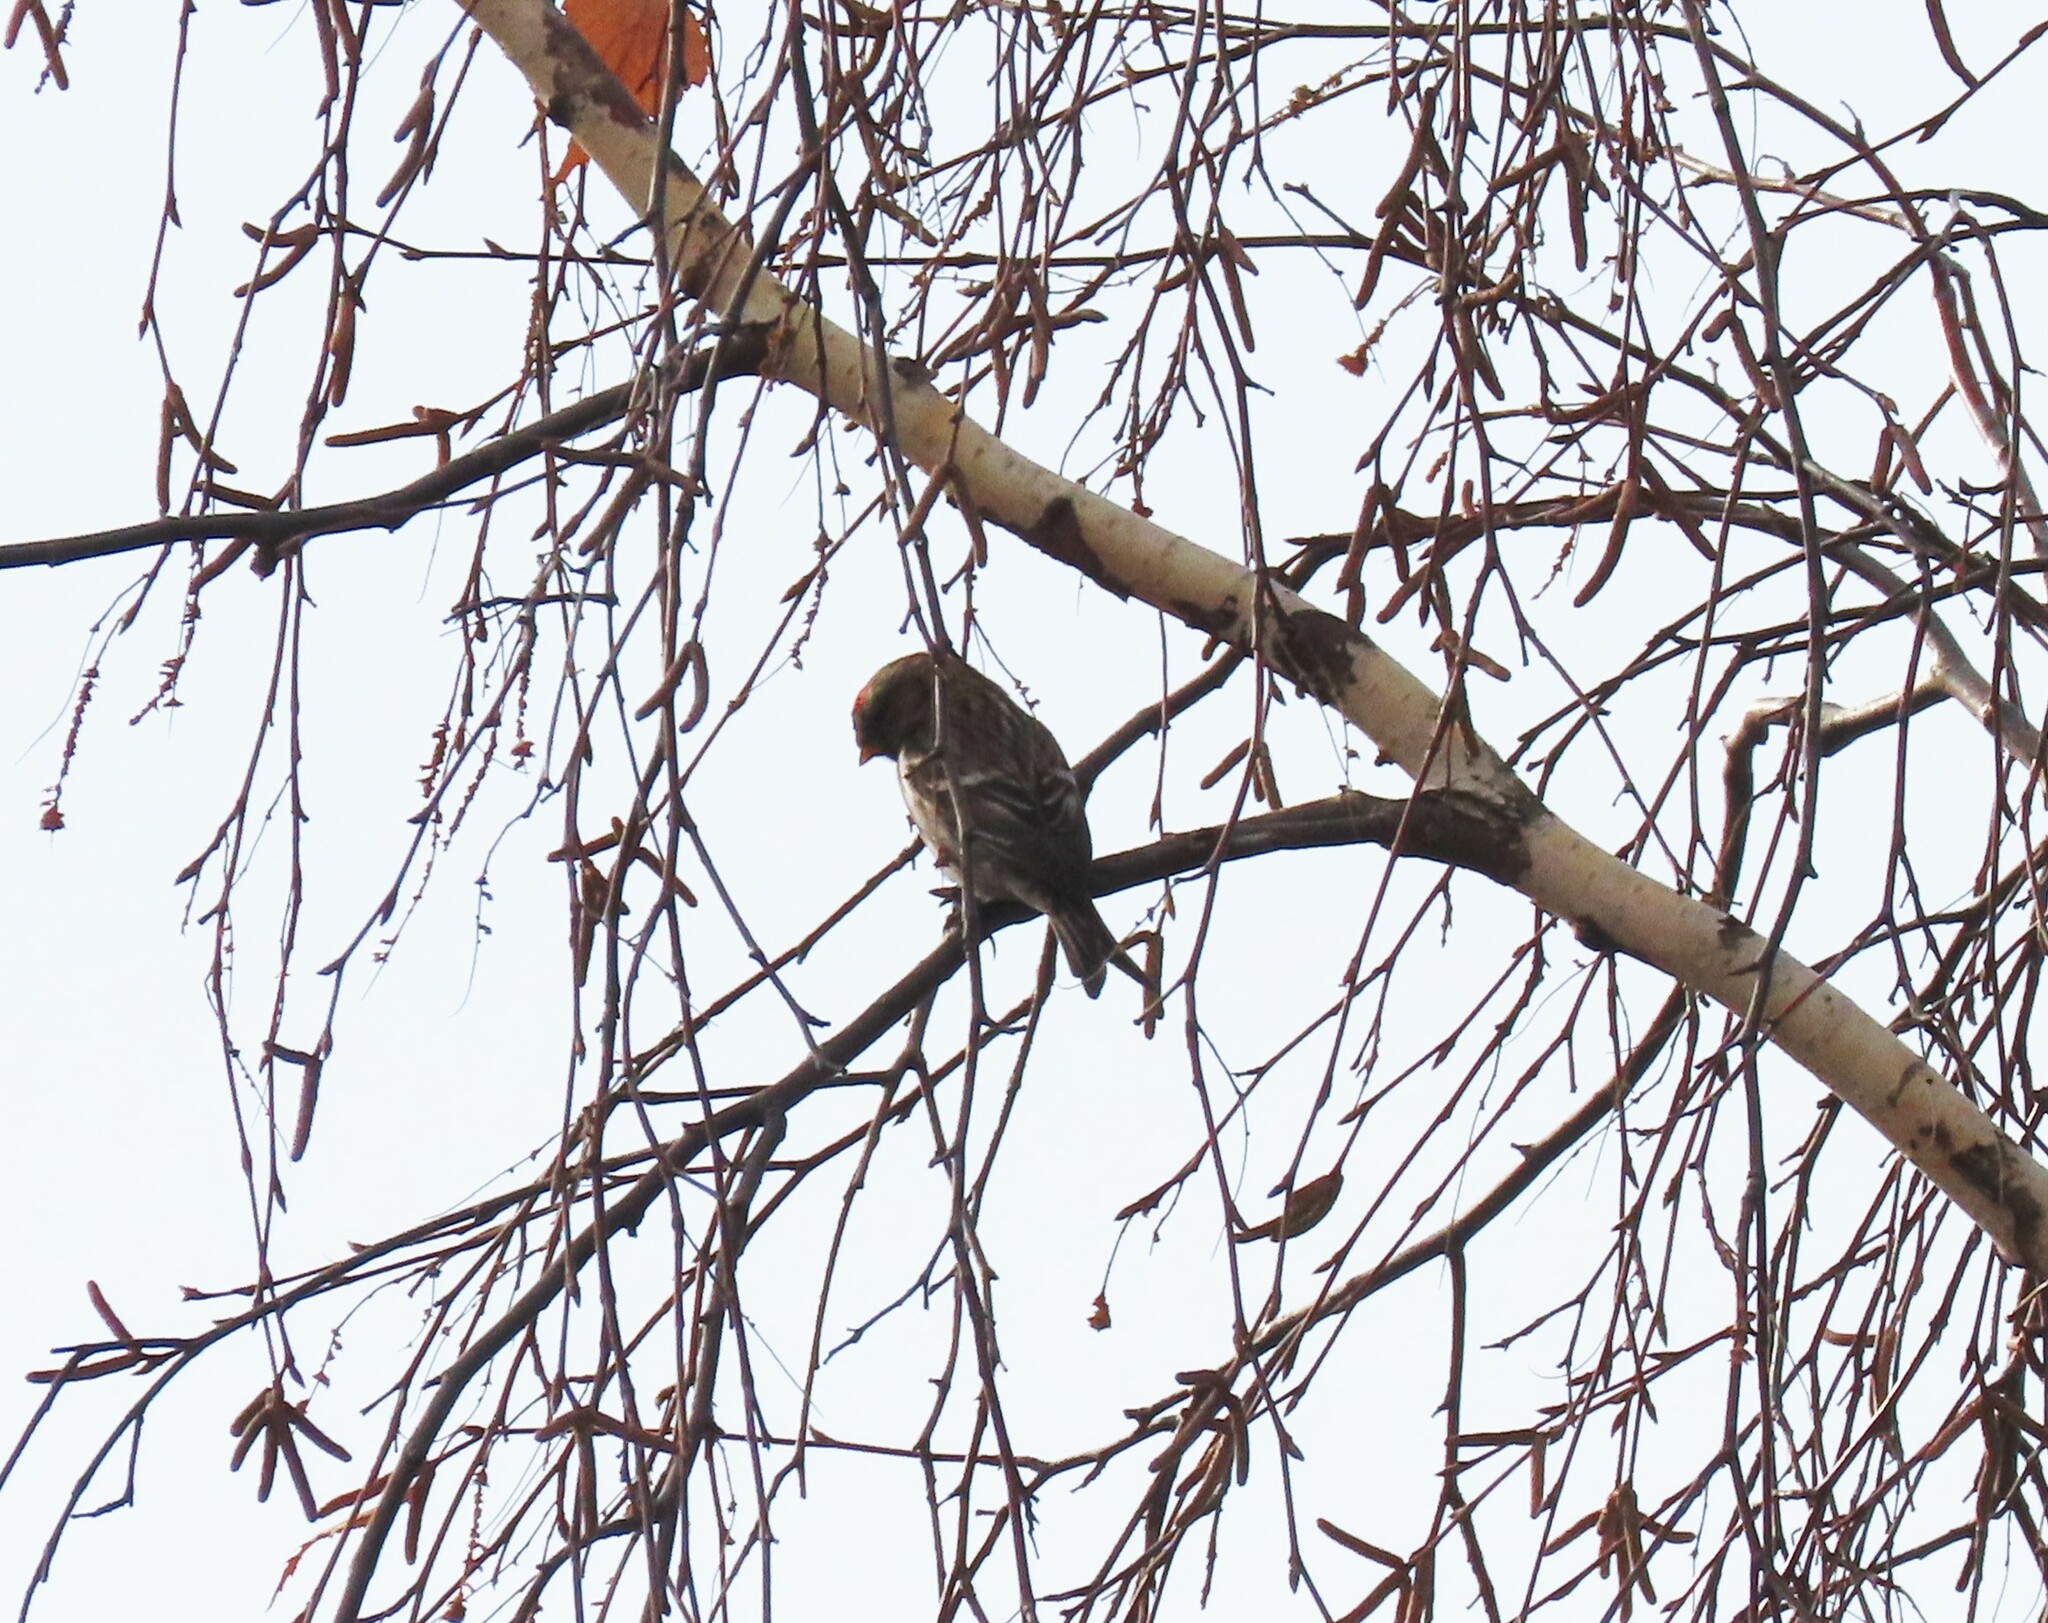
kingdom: Animalia
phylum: Chordata
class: Aves
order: Passeriformes
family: Fringillidae
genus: Acanthis
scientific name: Acanthis flammea
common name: Common redpoll
